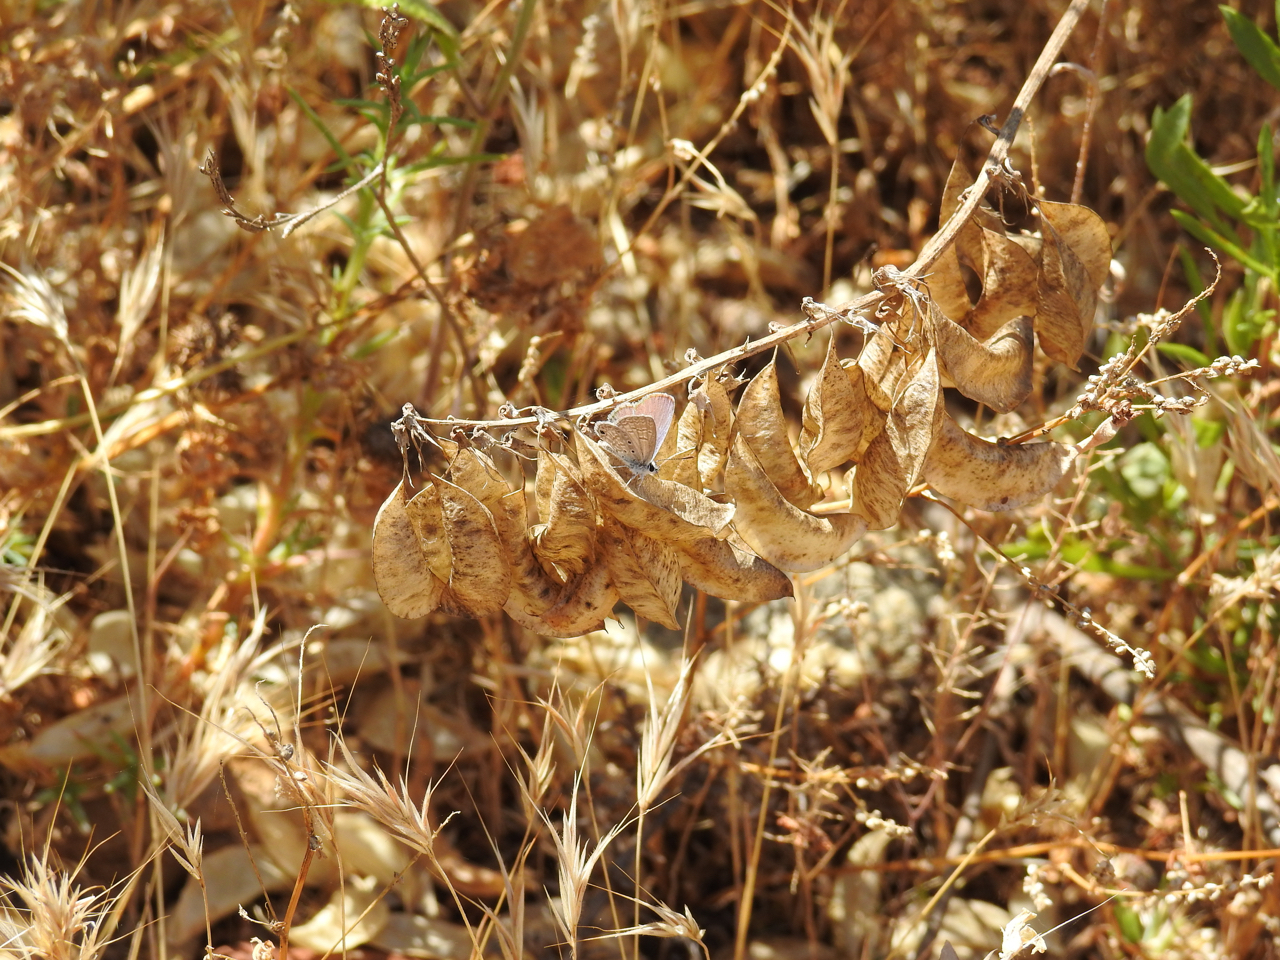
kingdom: Animalia
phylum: Arthropoda
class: Insecta
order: Lepidoptera
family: Lycaenidae
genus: Hemiargus
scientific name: Hemiargus ceraunus
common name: Ceraunus blue
